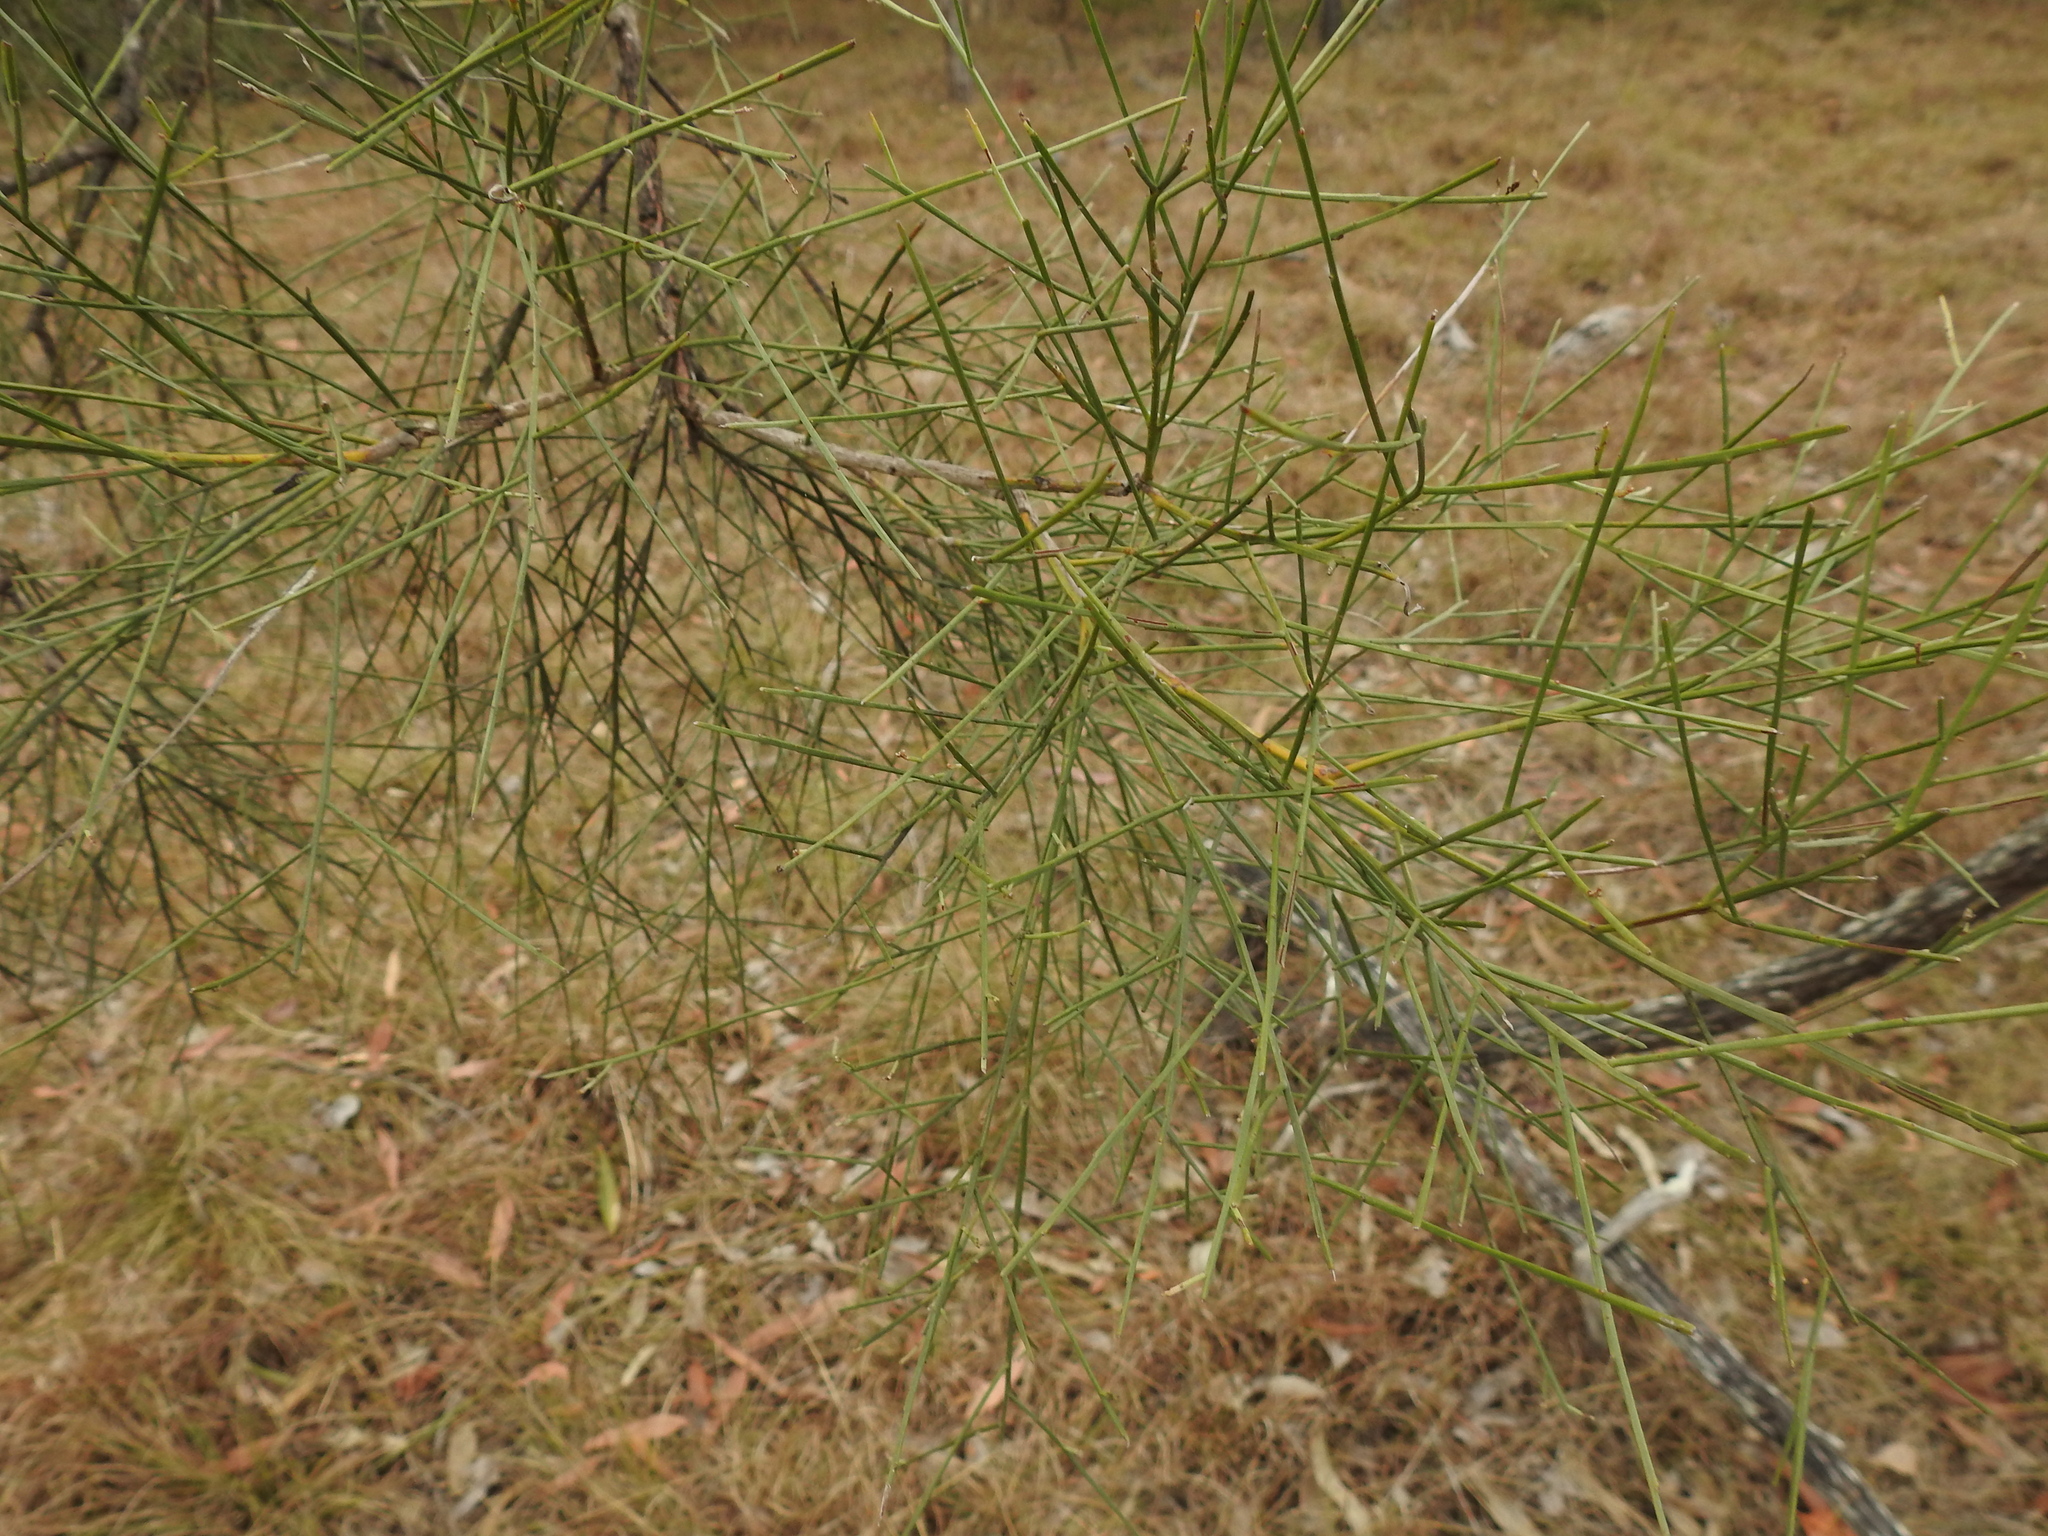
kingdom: Plantae
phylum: Tracheophyta
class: Magnoliopsida
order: Fabales
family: Fabaceae
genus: Jacksonia
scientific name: Jacksonia scoparia
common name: Dogwood
